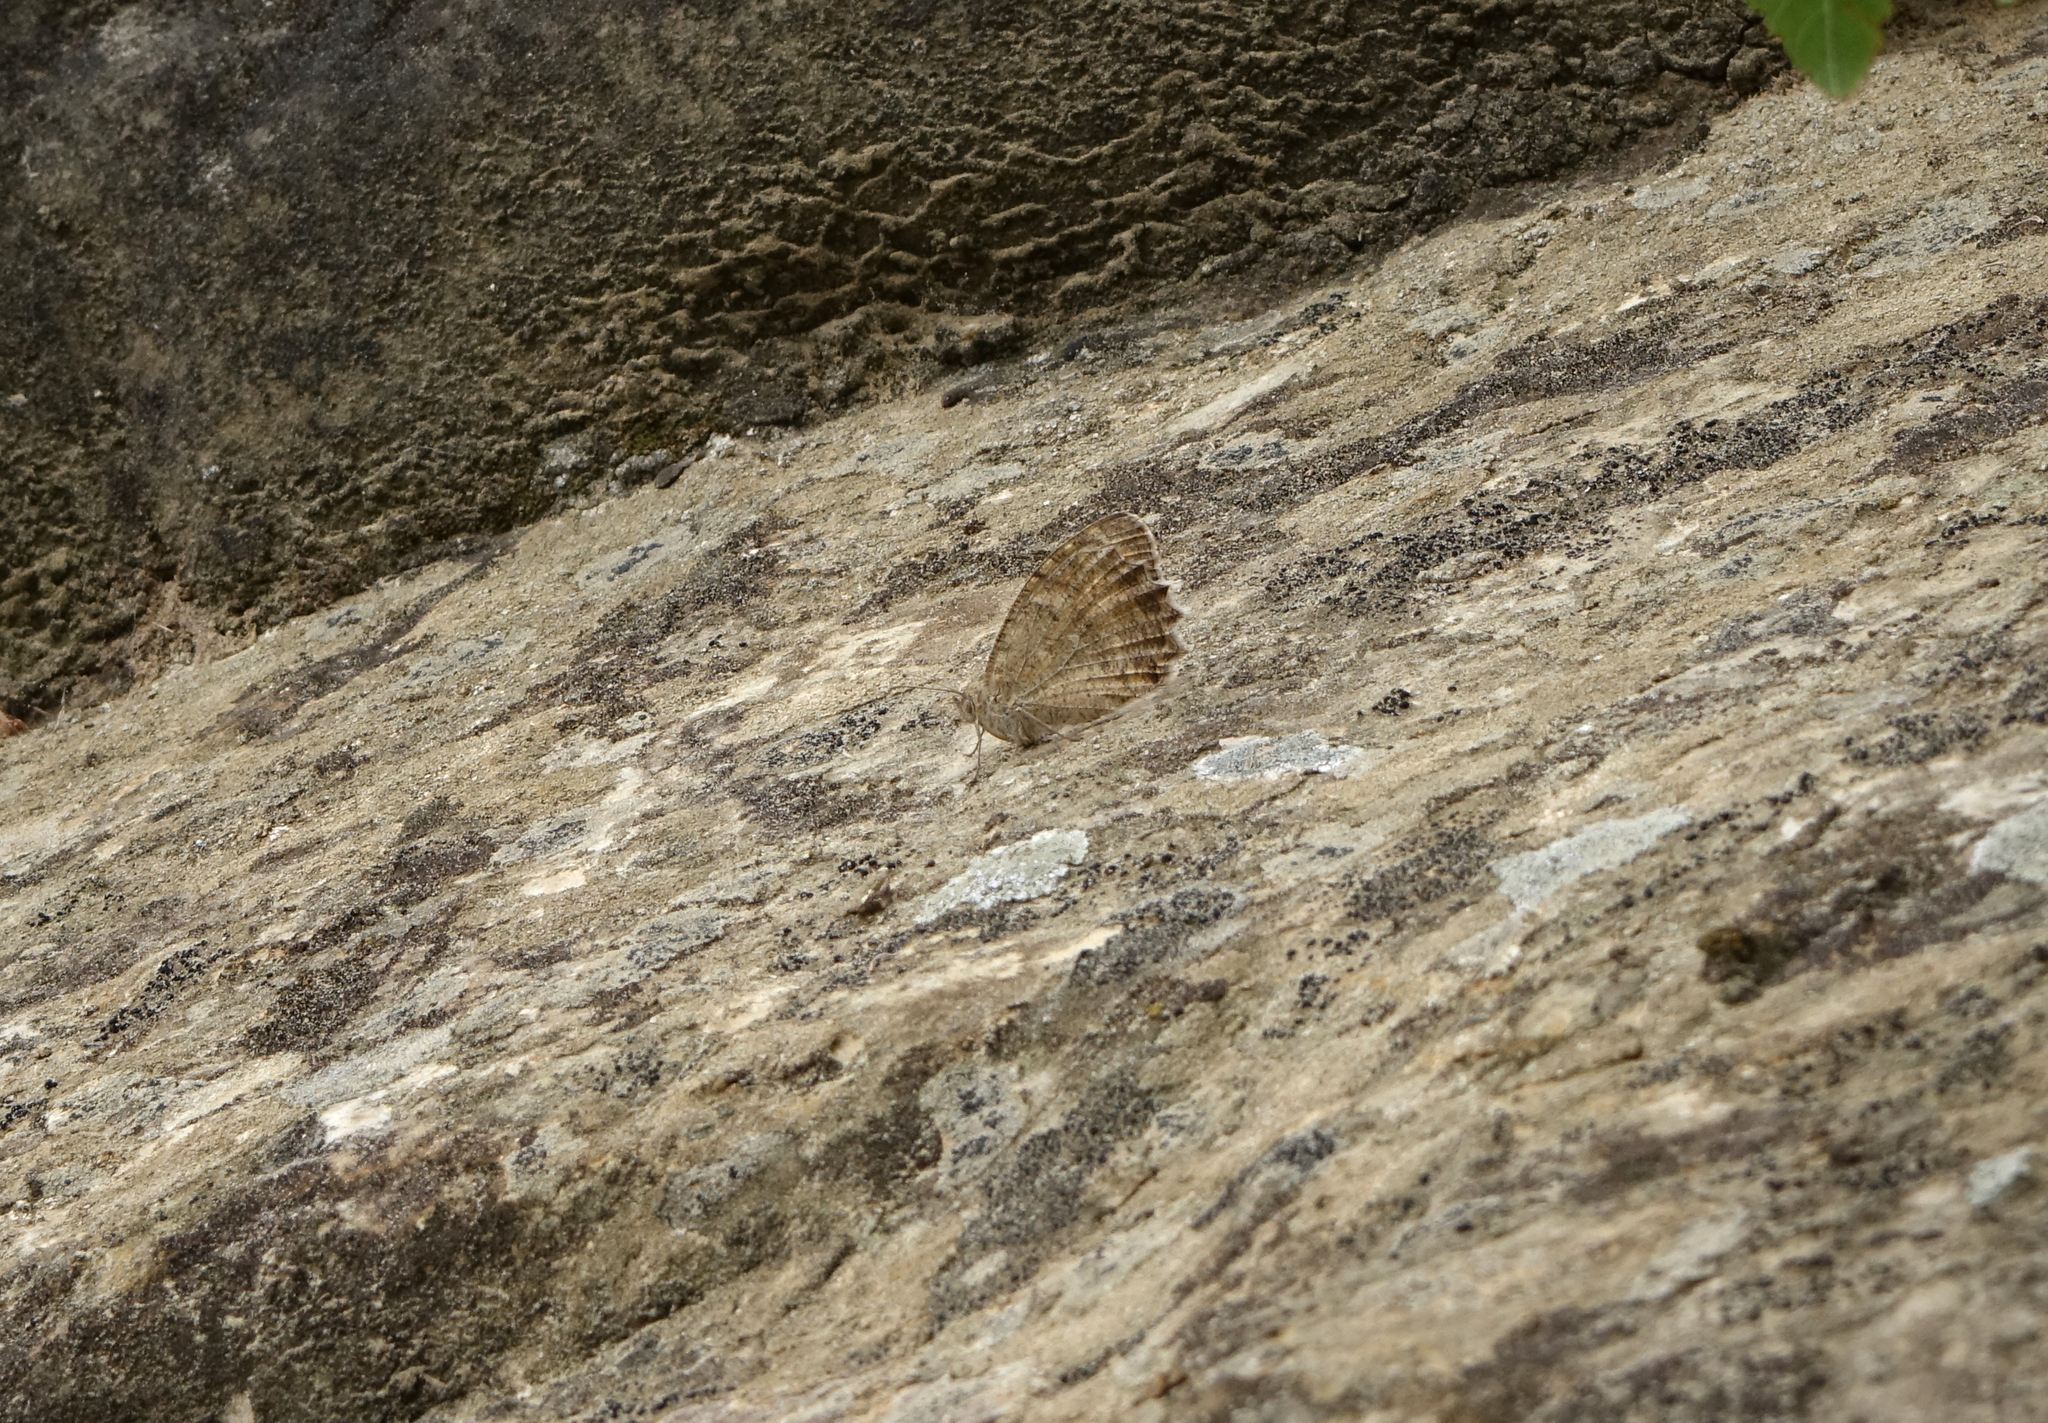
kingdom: Animalia
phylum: Arthropoda
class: Insecta
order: Lepidoptera
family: Nymphalidae
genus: Pseudochazara
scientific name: Pseudochazara pelopea
